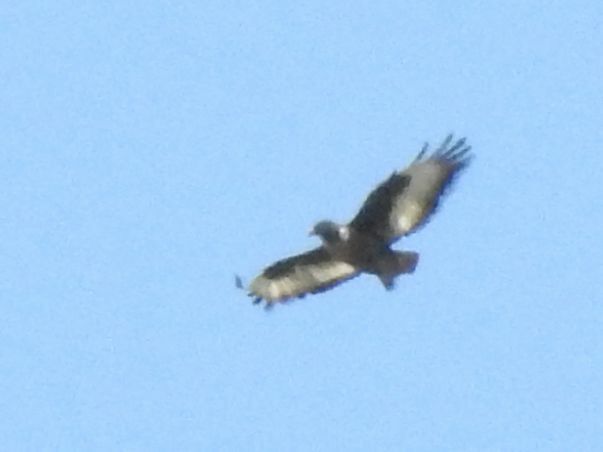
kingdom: Animalia
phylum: Chordata
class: Aves
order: Accipitriformes
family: Accipitridae
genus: Buteo
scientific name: Buteo rufofuscus
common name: Jackal buzzard
